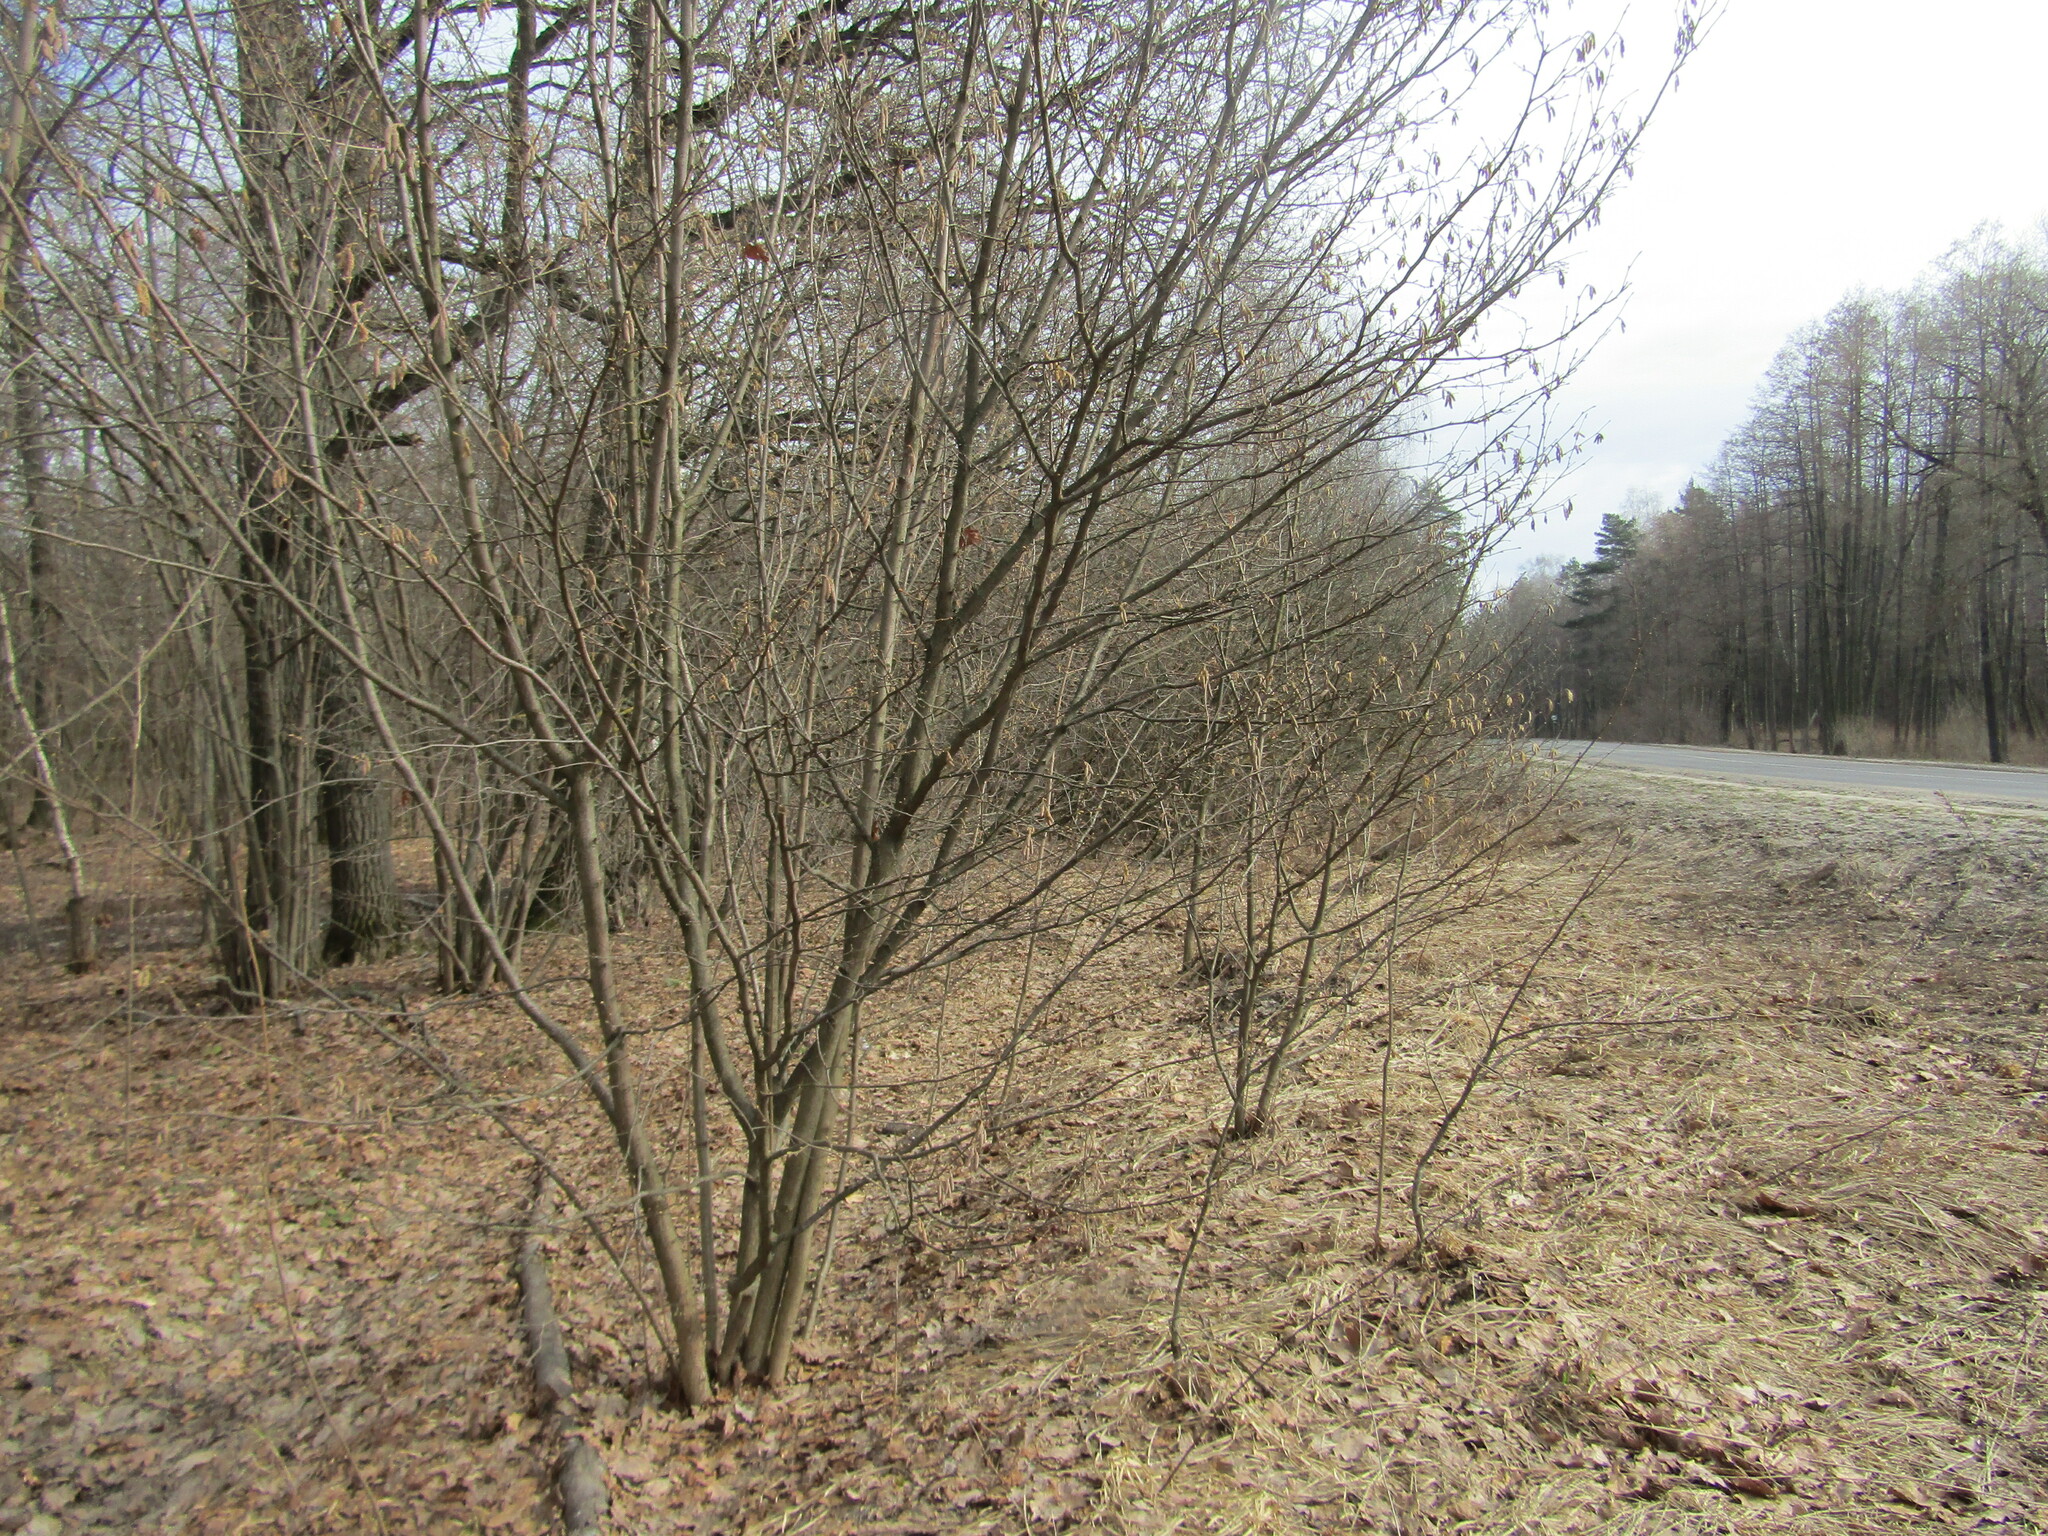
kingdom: Plantae
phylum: Tracheophyta
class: Magnoliopsida
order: Fagales
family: Betulaceae
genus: Corylus
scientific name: Corylus avellana
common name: European hazel
